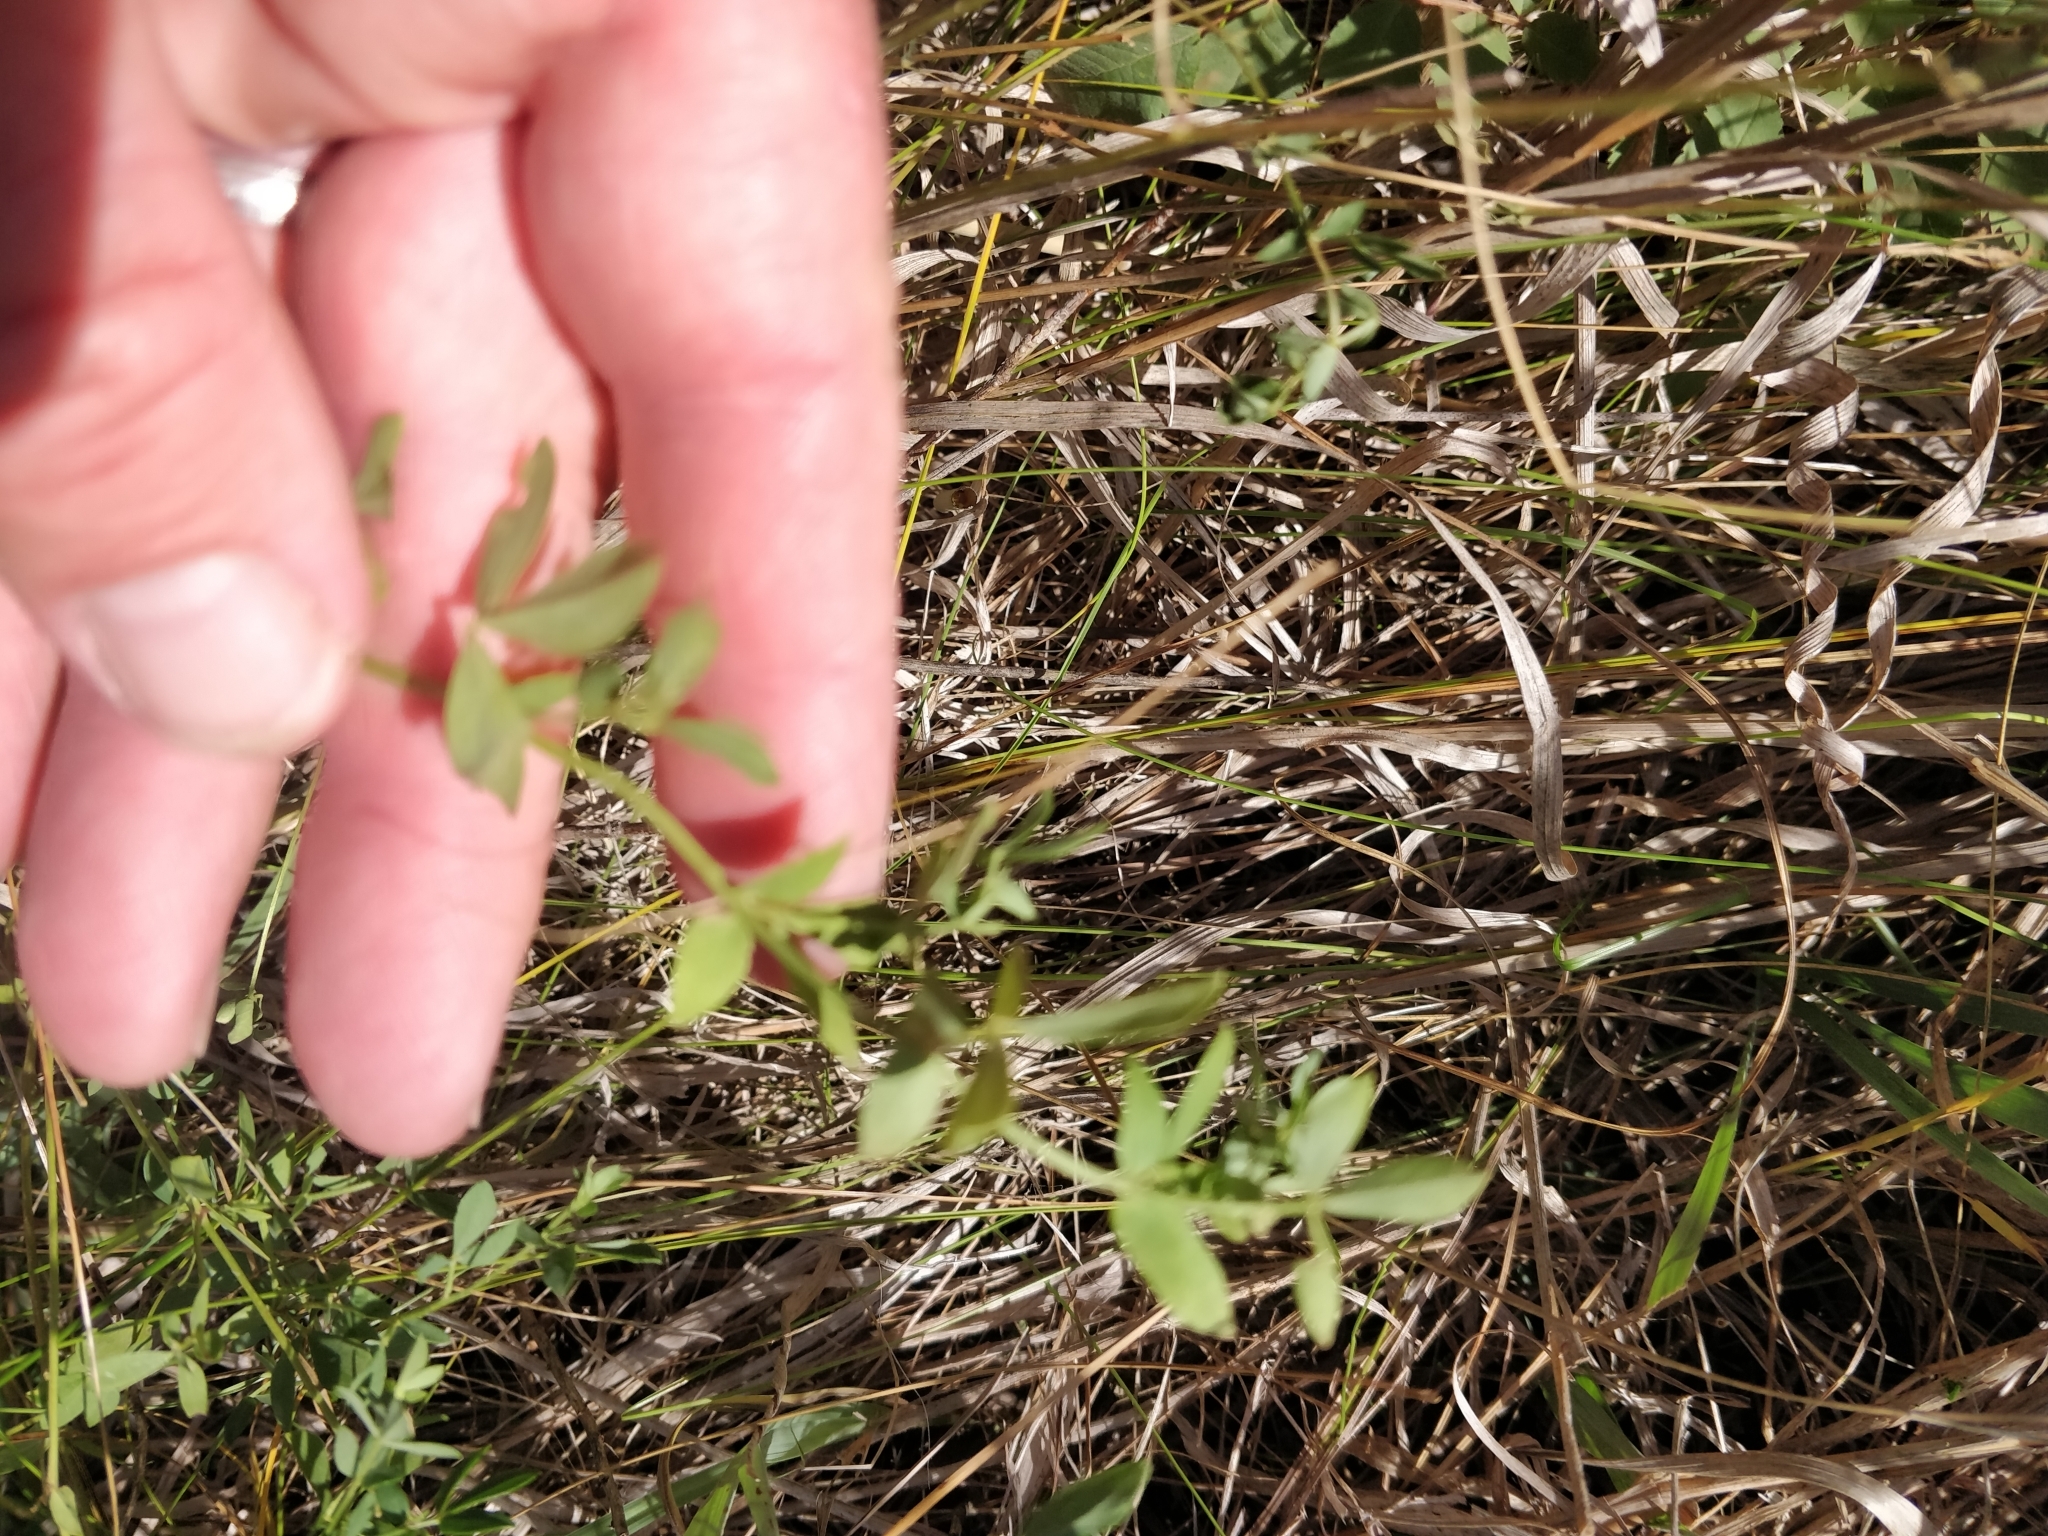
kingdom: Plantae
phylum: Tracheophyta
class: Magnoliopsida
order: Fabales
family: Fabaceae
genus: Lotus
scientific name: Lotus corniculatus
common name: Common bird's-foot-trefoil
